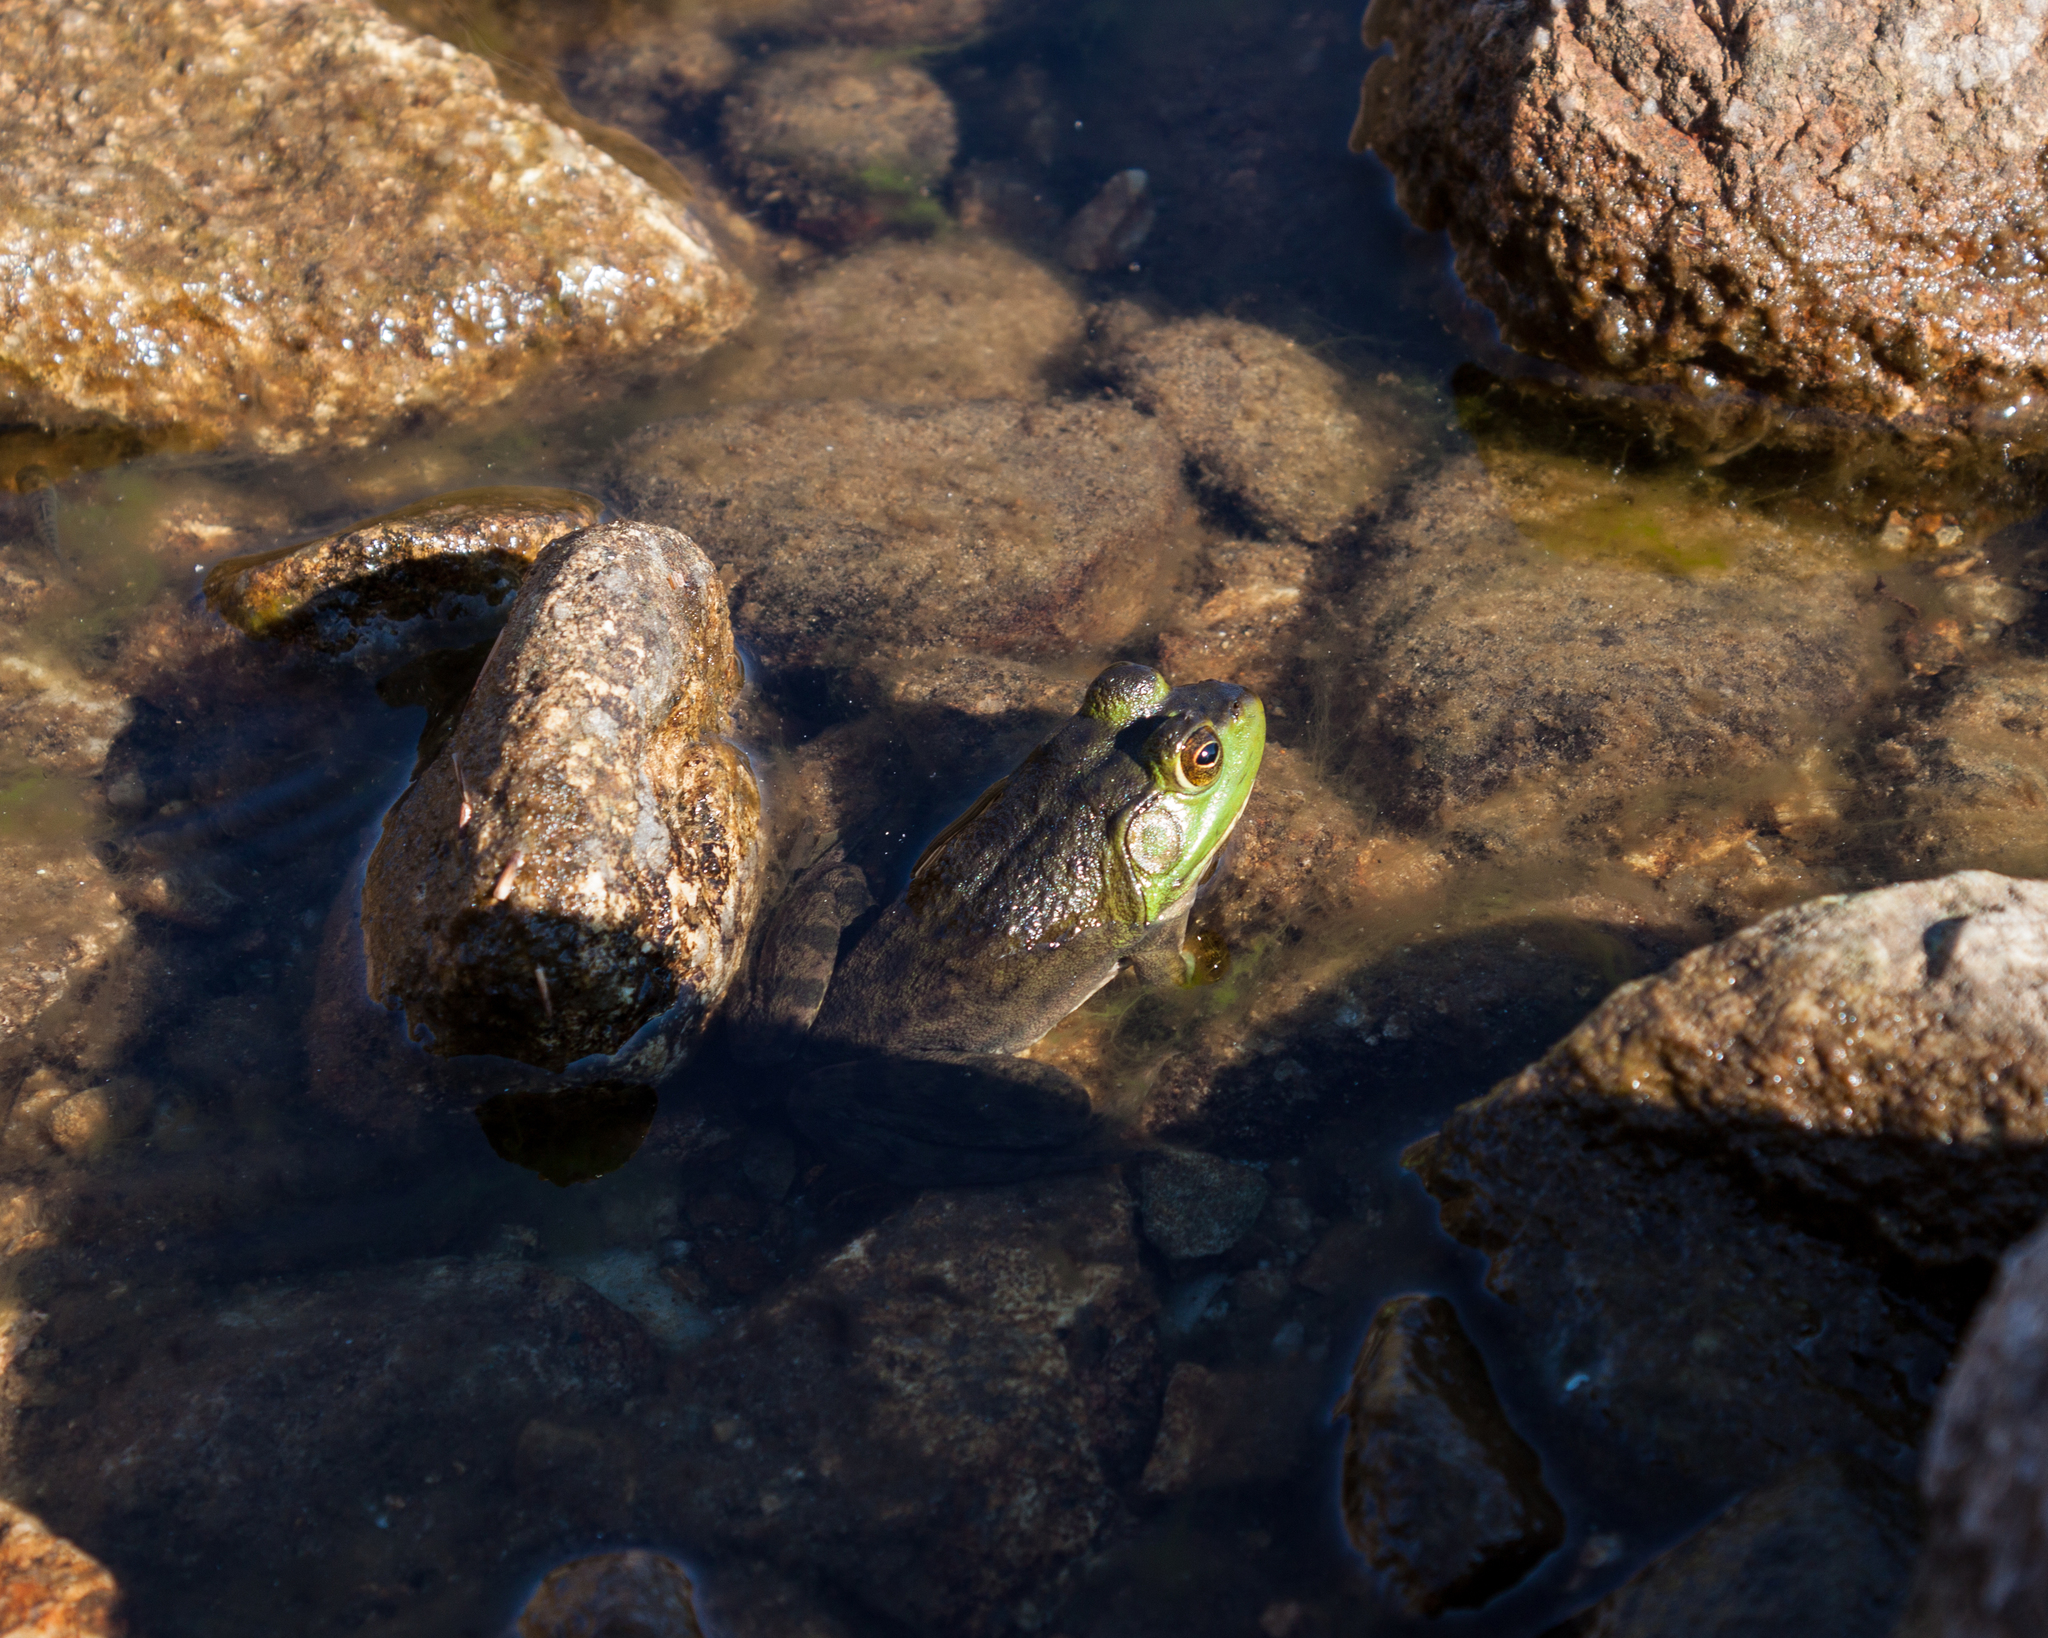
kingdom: Animalia
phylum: Chordata
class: Amphibia
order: Anura
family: Ranidae
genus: Lithobates
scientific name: Lithobates catesbeianus
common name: American bullfrog
